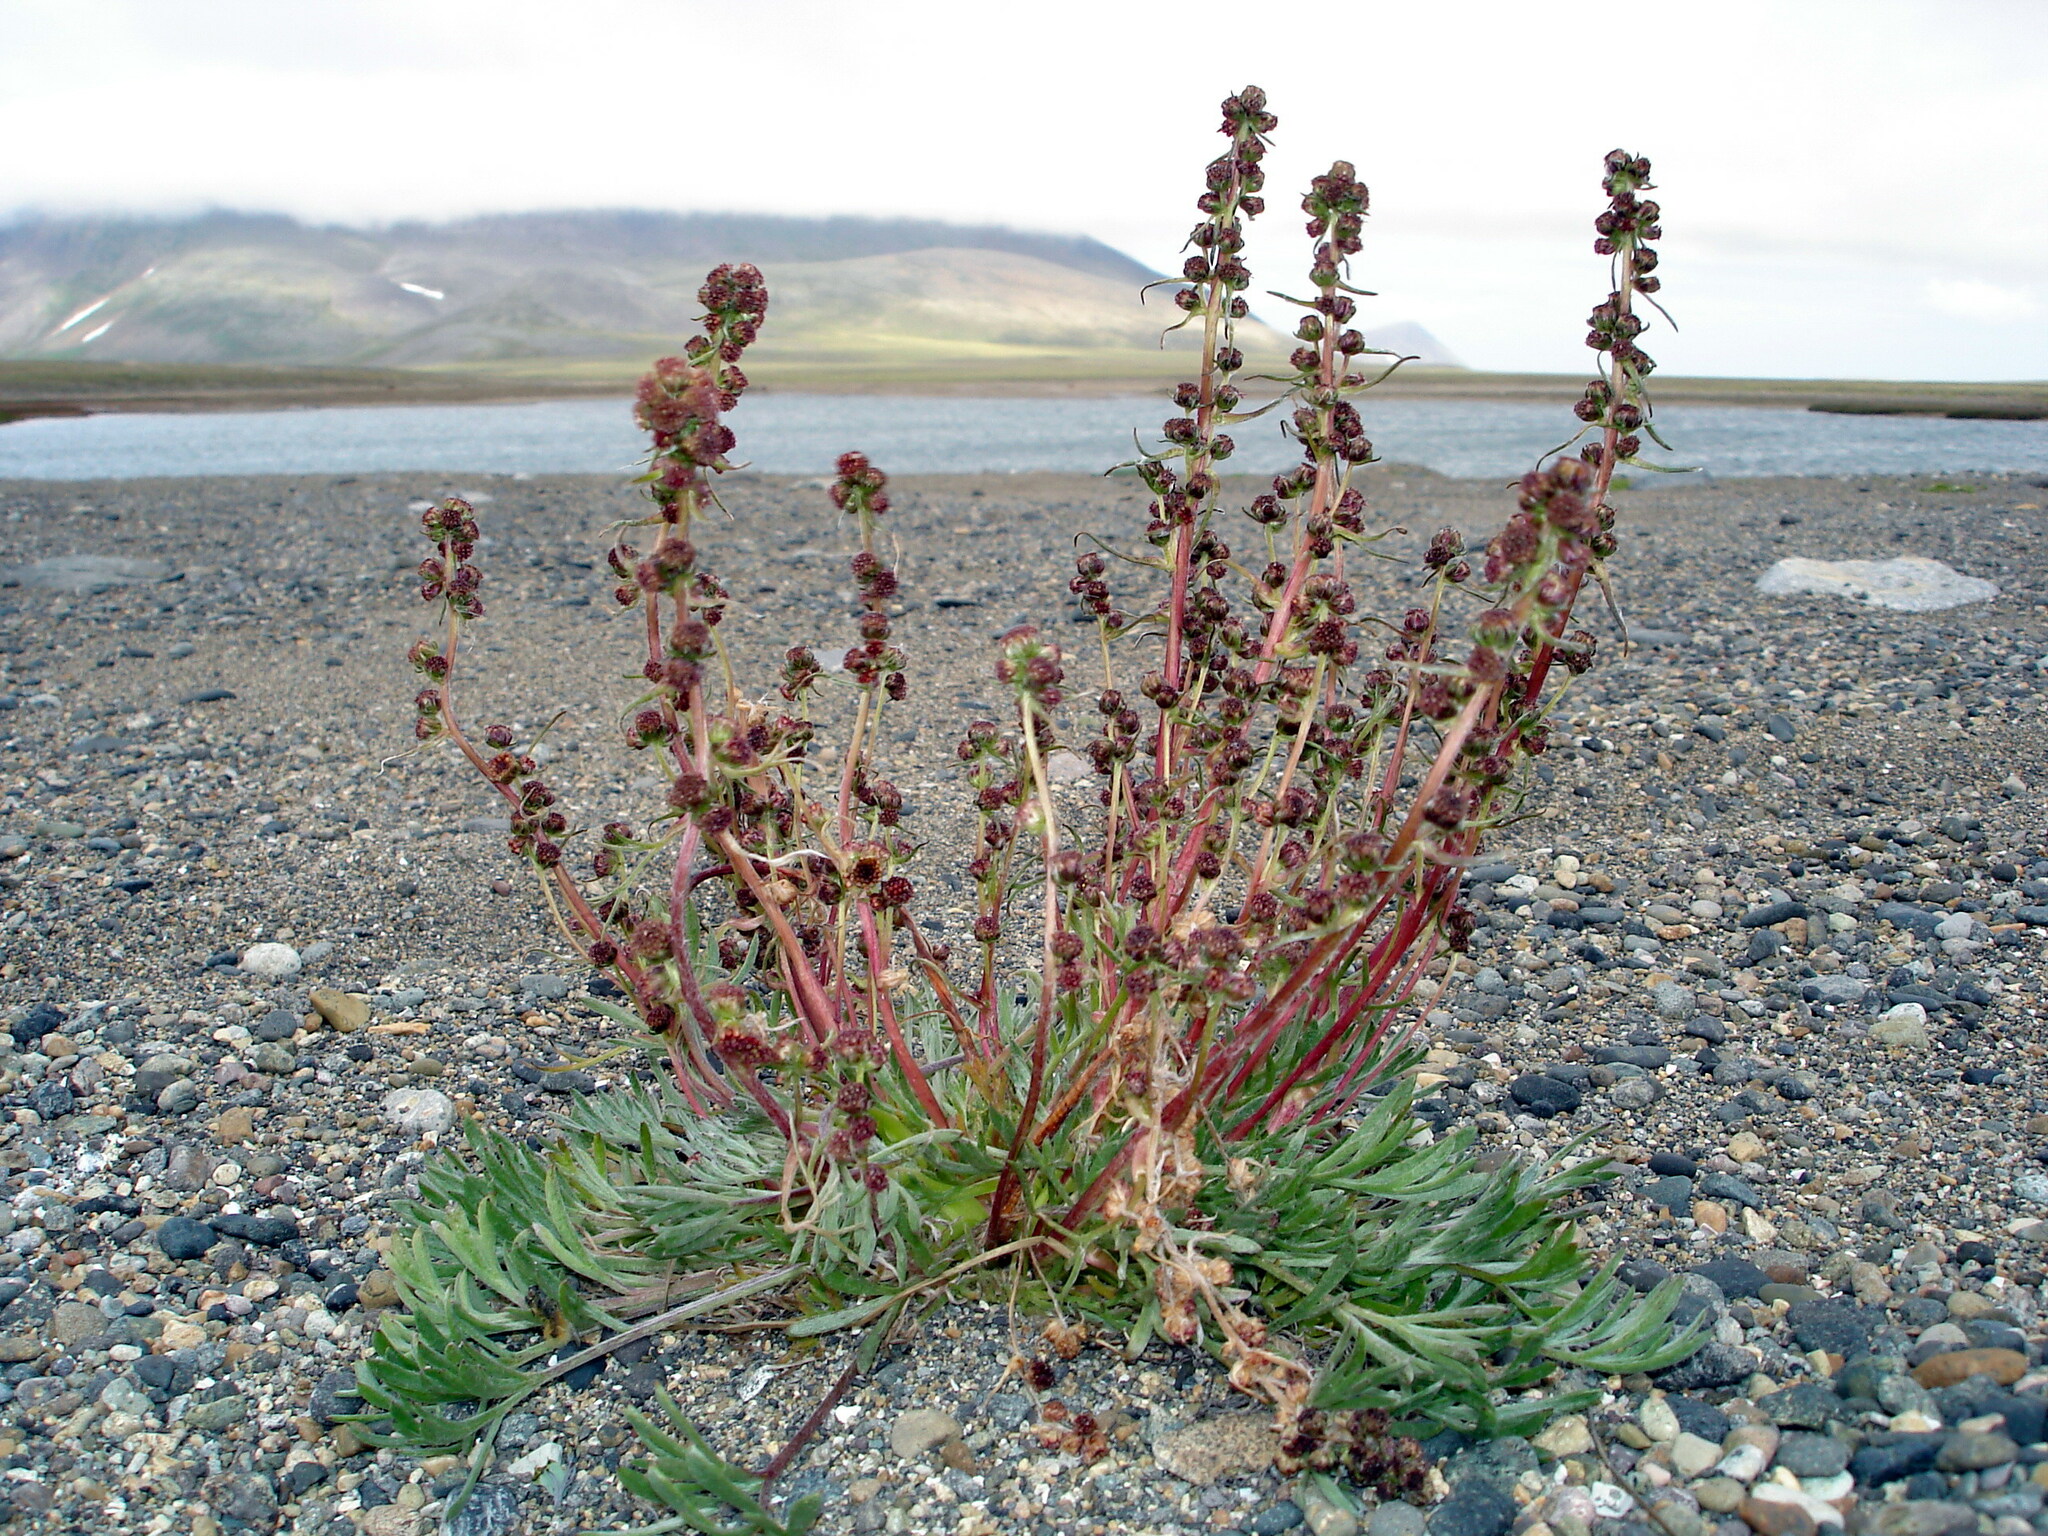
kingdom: Plantae
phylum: Tracheophyta
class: Magnoliopsida
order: Asterales
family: Asteraceae
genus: Artemisia
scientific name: Artemisia borealis
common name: Boreal sage
